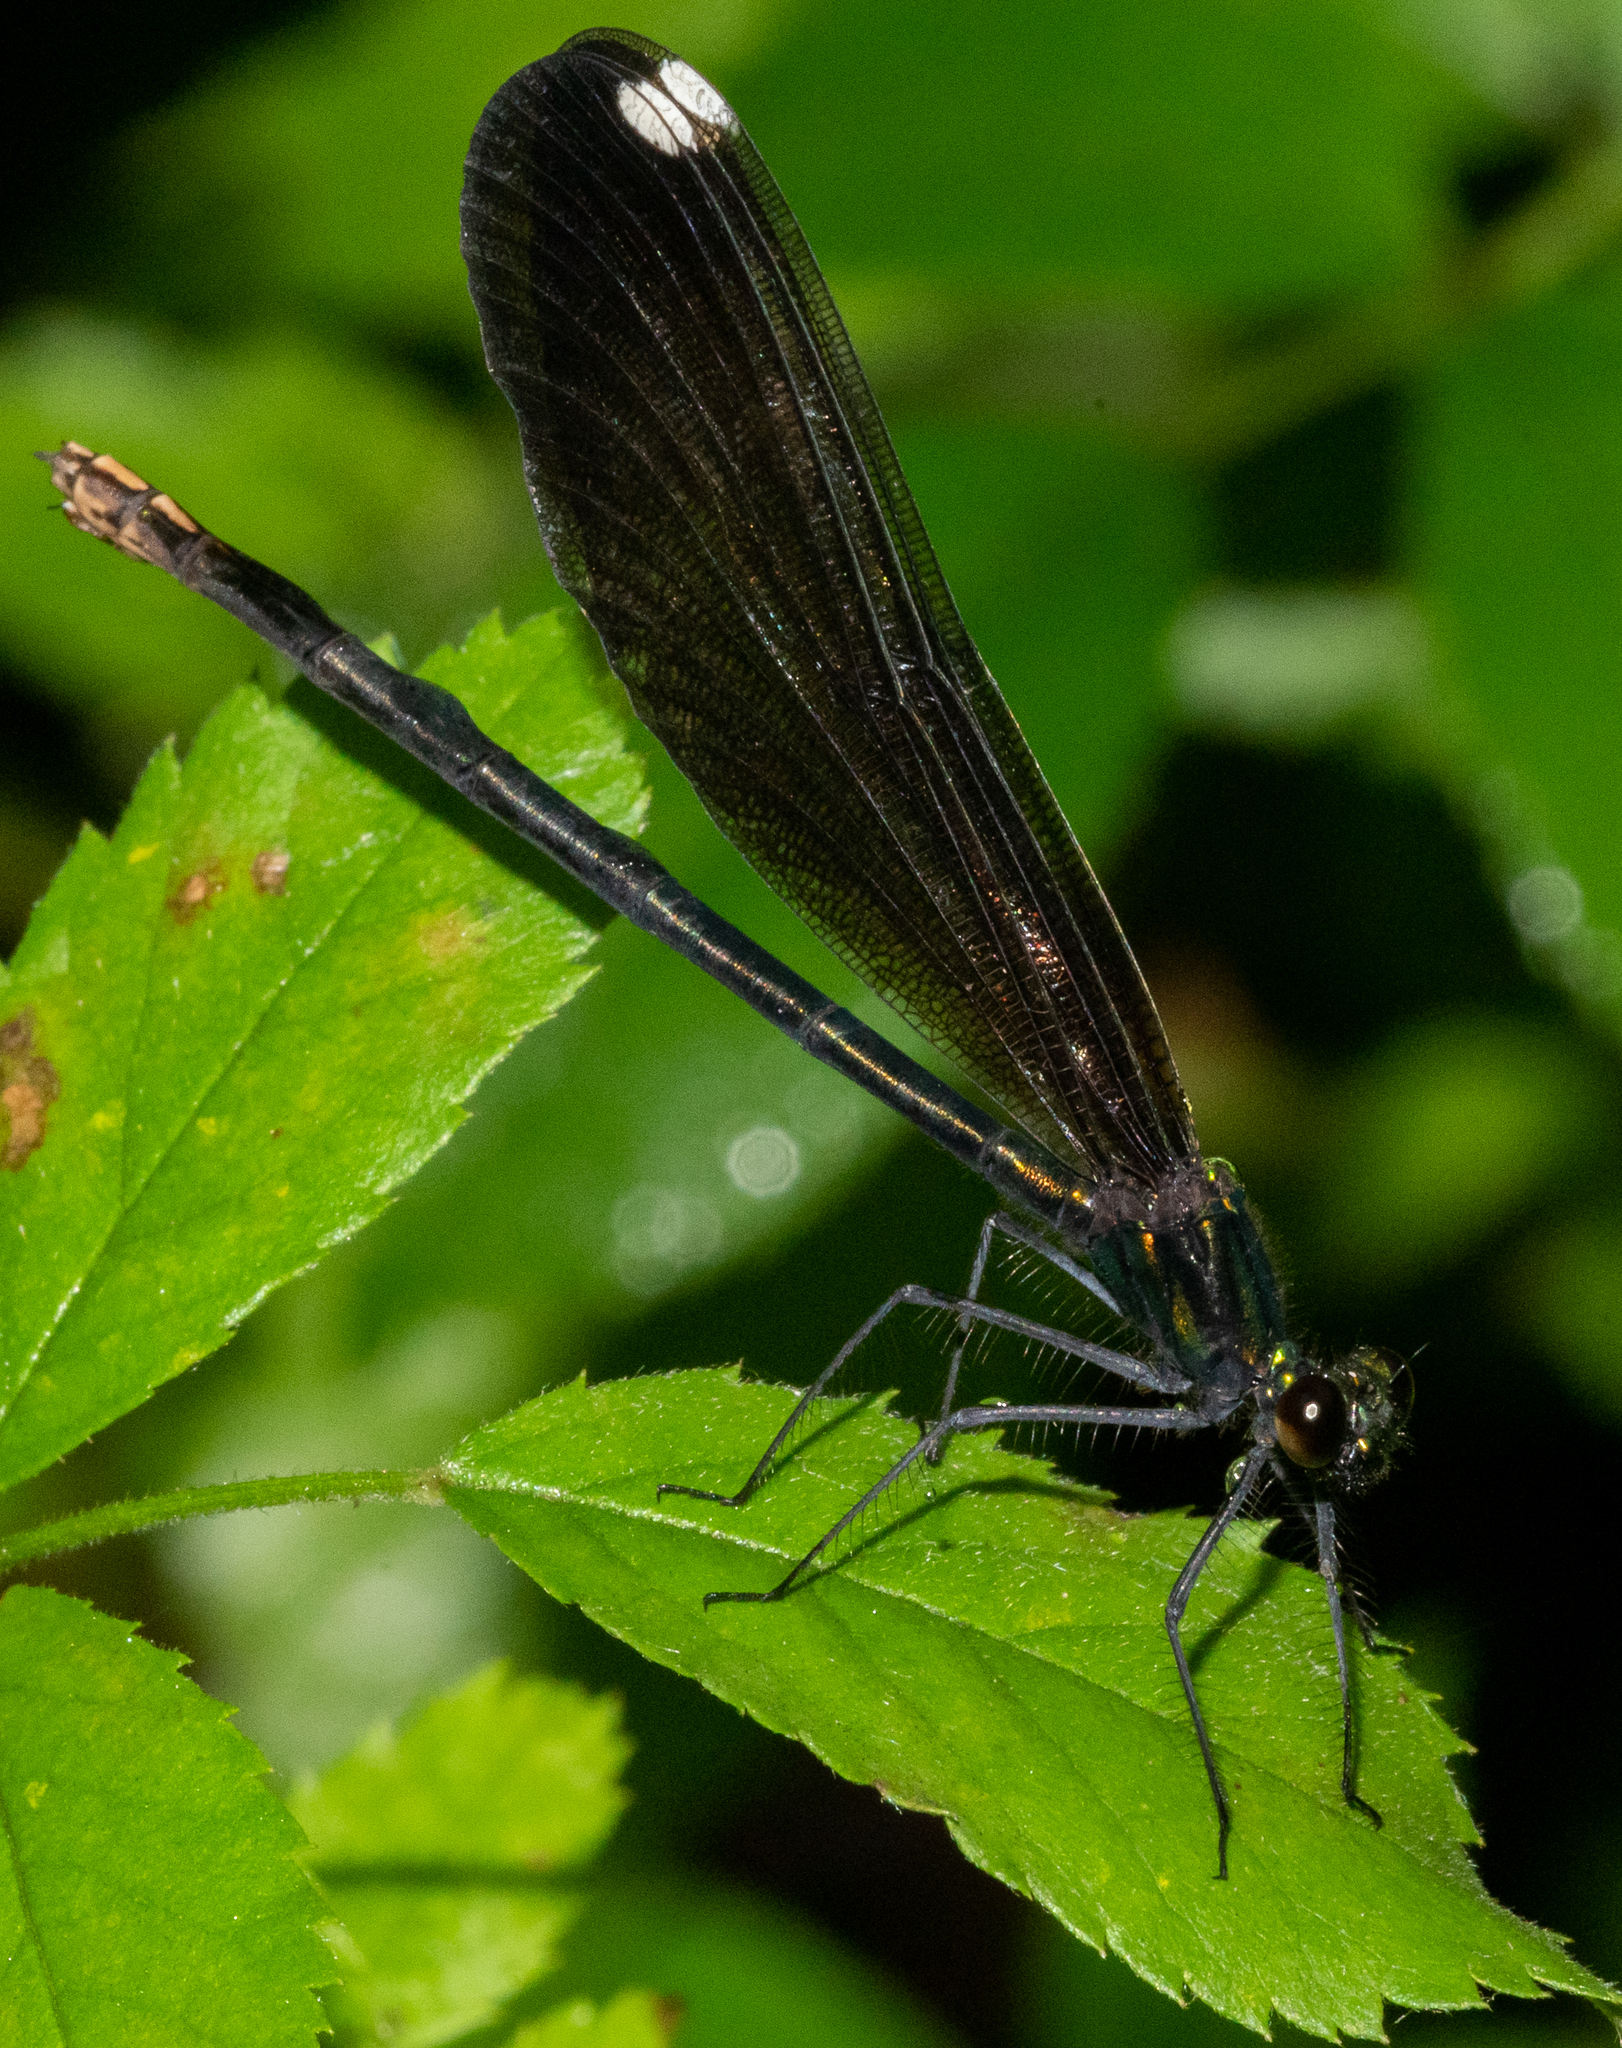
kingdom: Animalia
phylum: Arthropoda
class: Insecta
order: Odonata
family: Calopterygidae
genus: Calopteryx
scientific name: Calopteryx maculata
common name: Ebony jewelwing
